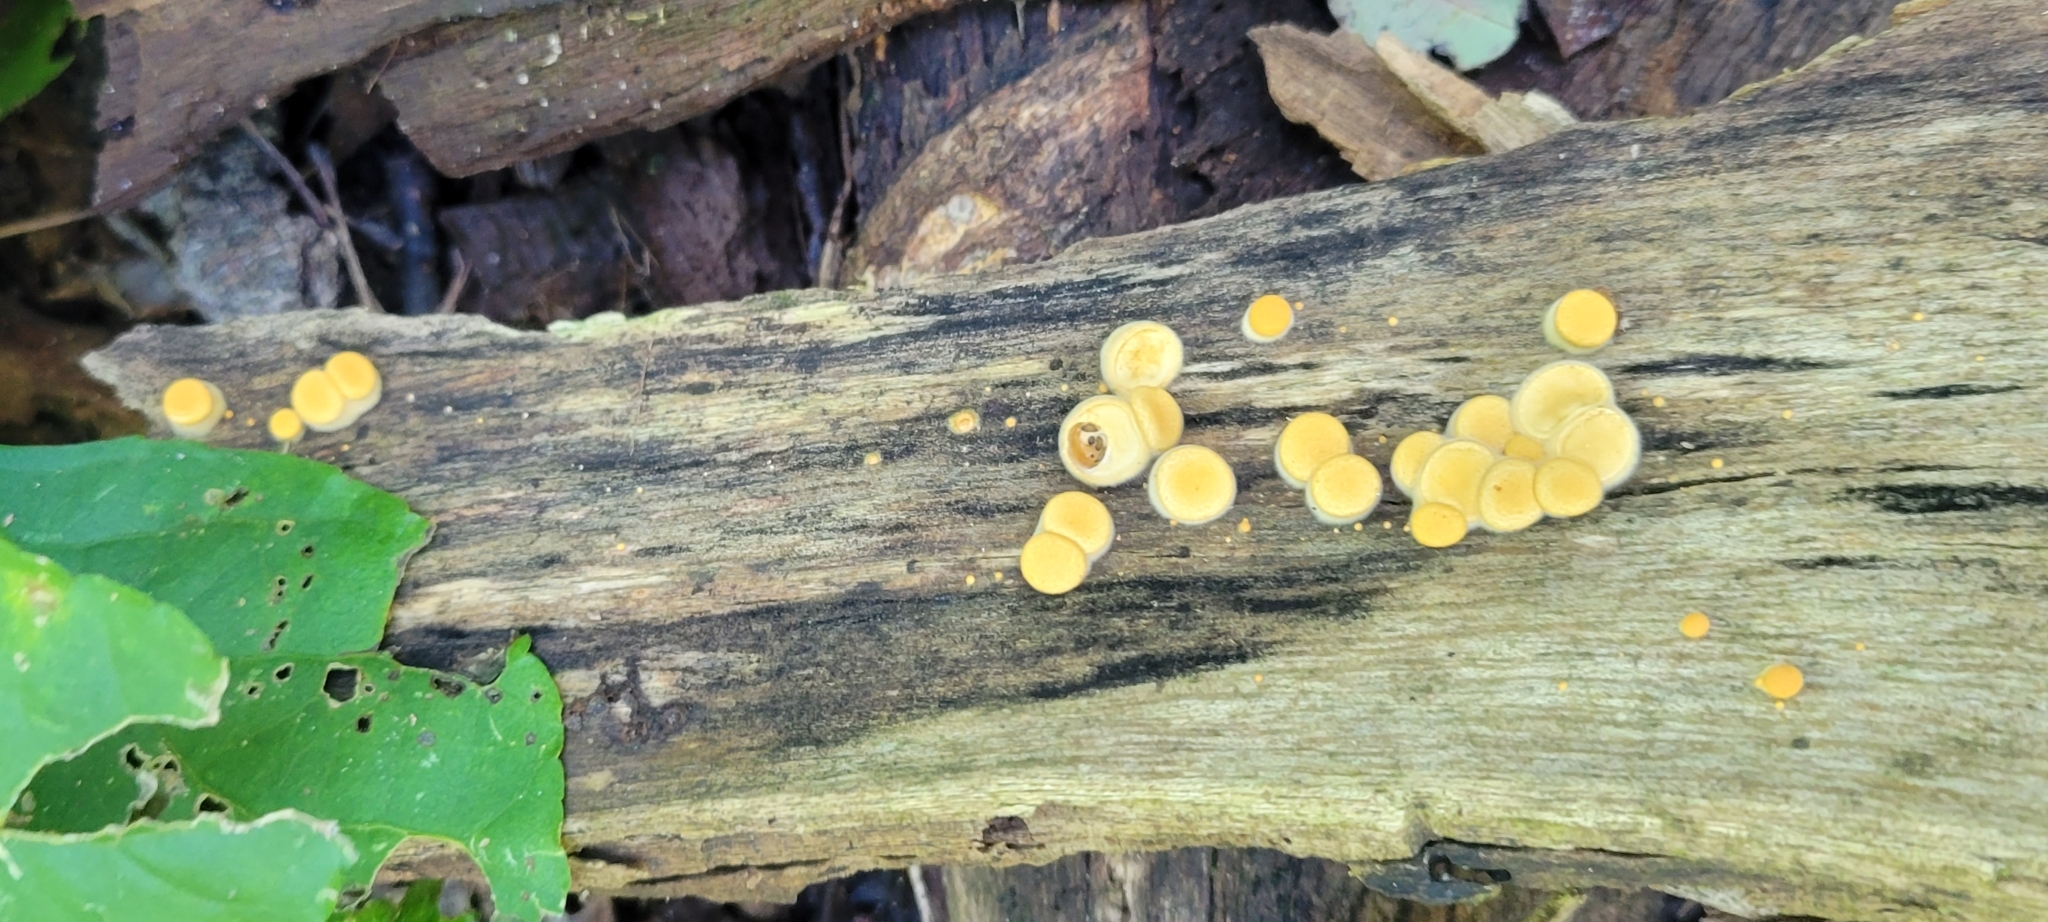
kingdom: Fungi
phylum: Basidiomycota
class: Agaricomycetes
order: Agaricales
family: Nidulariaceae
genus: Crucibulum
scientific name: Crucibulum laeve
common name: Common bird's nest
